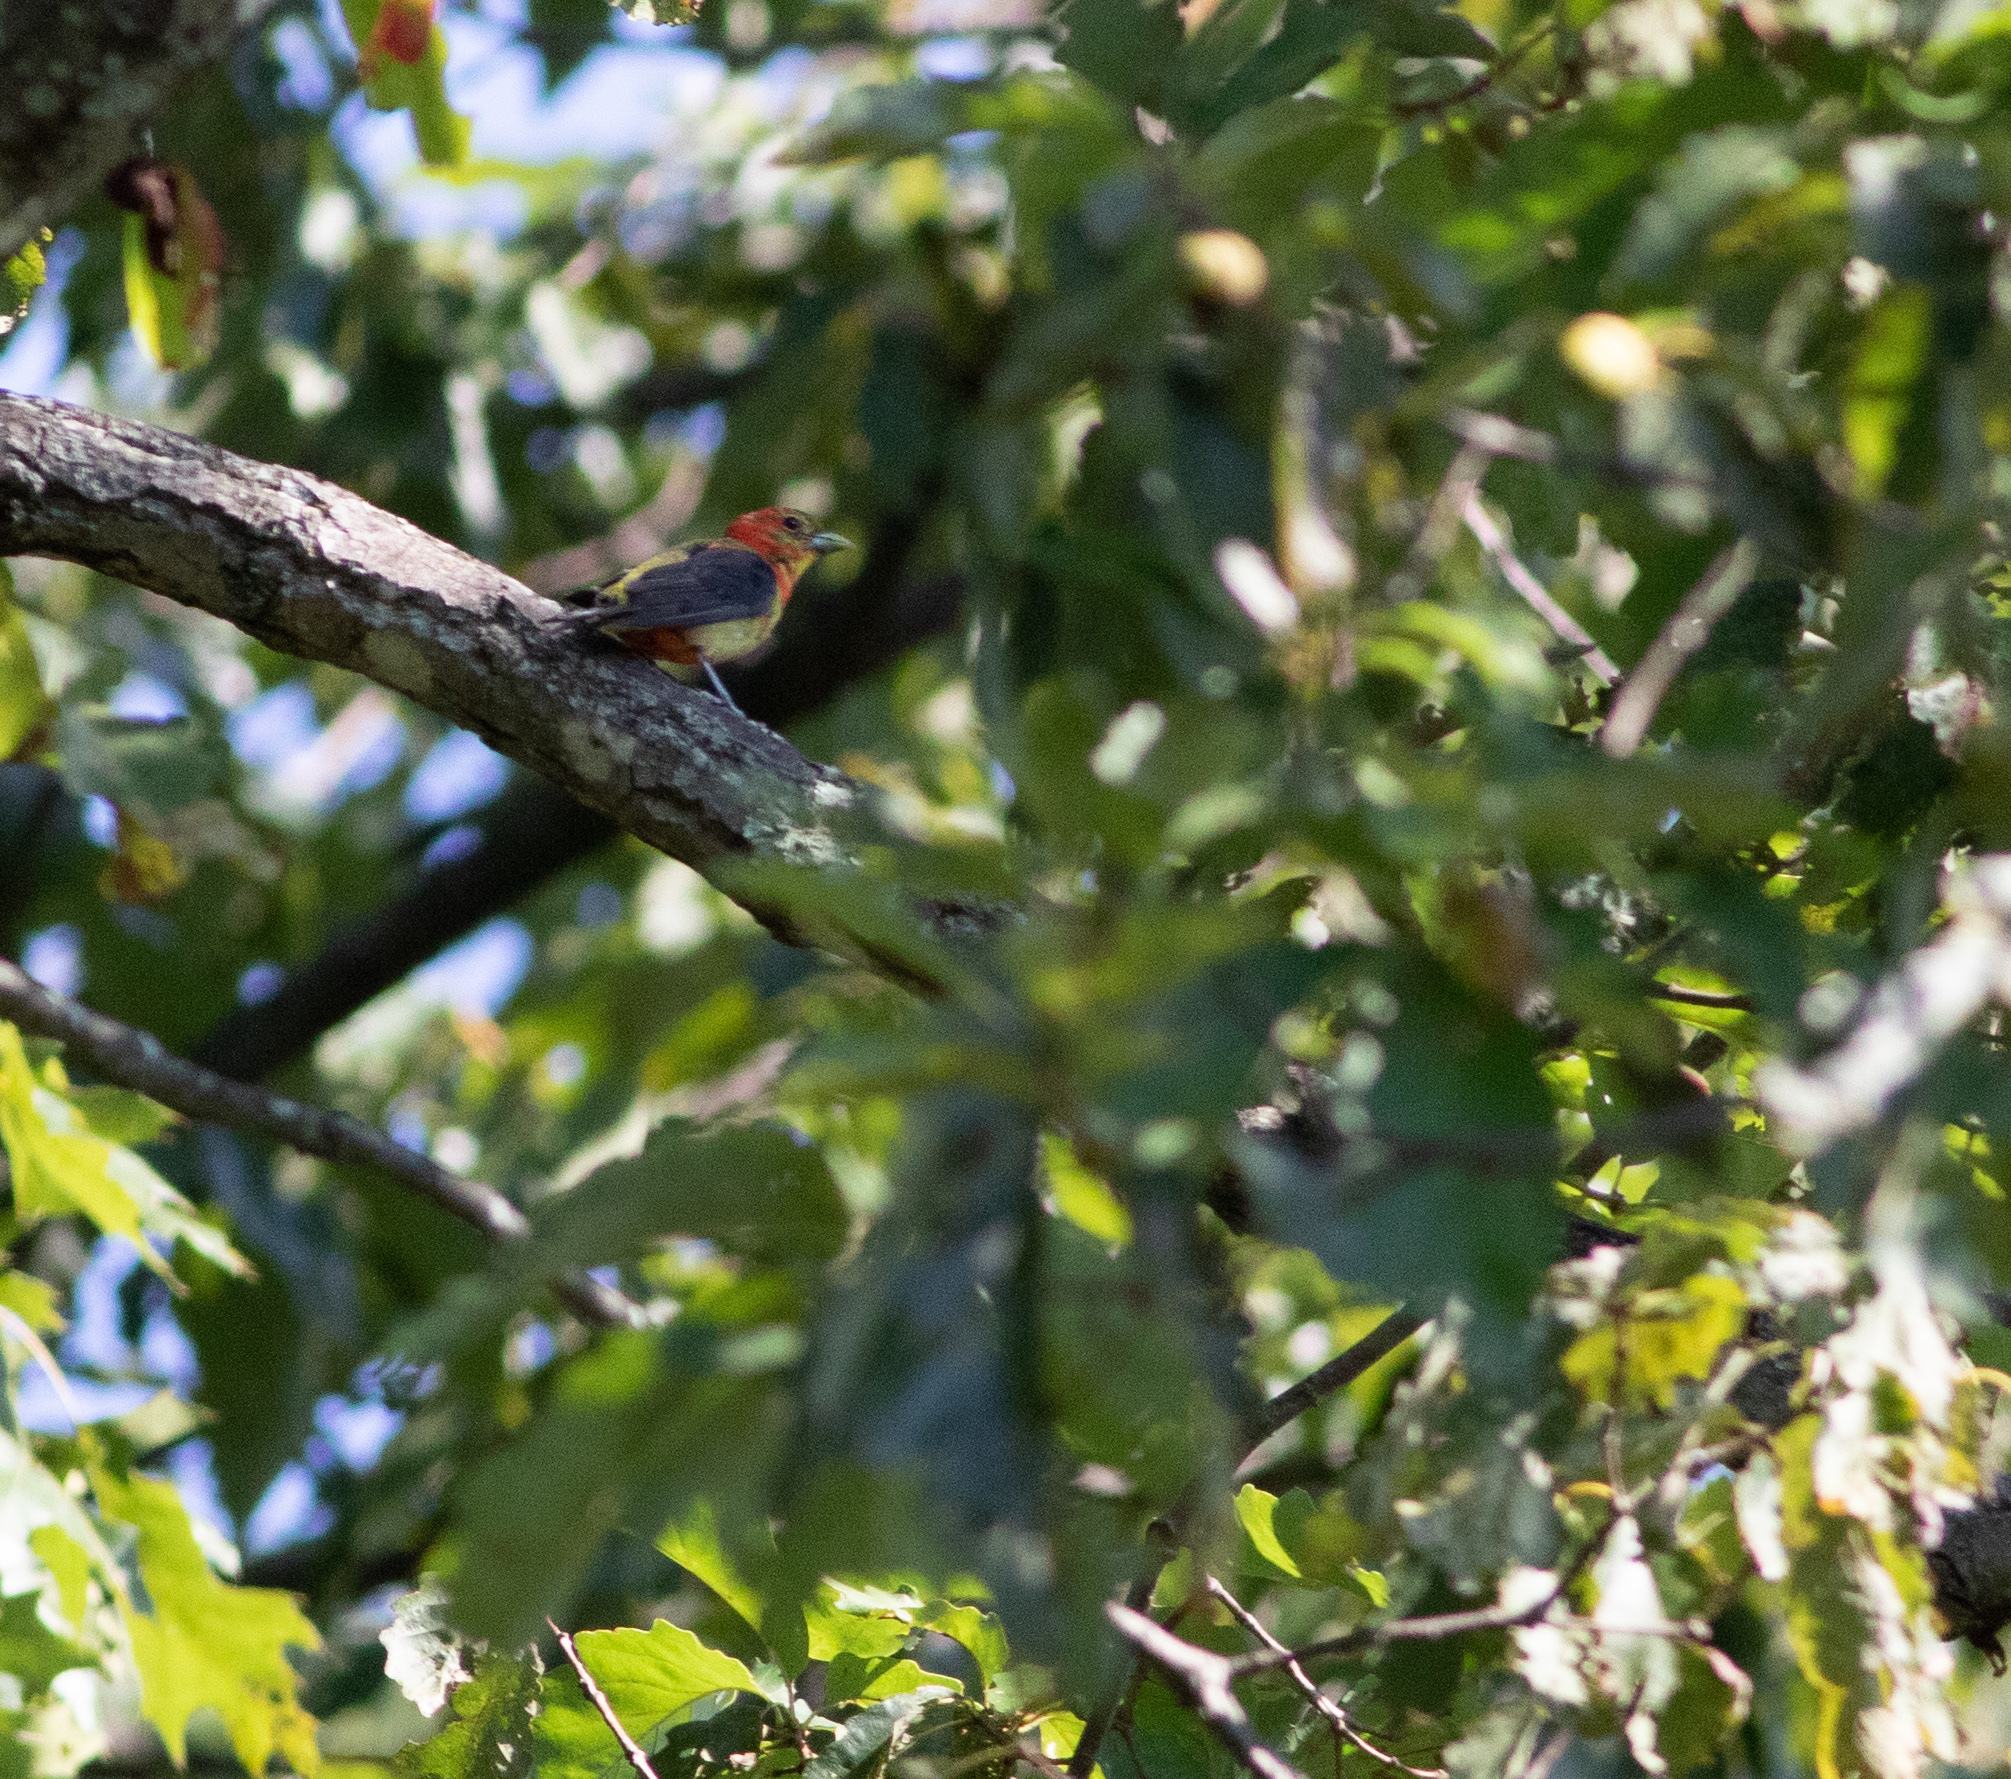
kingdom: Animalia
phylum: Chordata
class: Aves
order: Passeriformes
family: Cardinalidae
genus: Piranga
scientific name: Piranga olivacea
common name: Scarlet tanager
